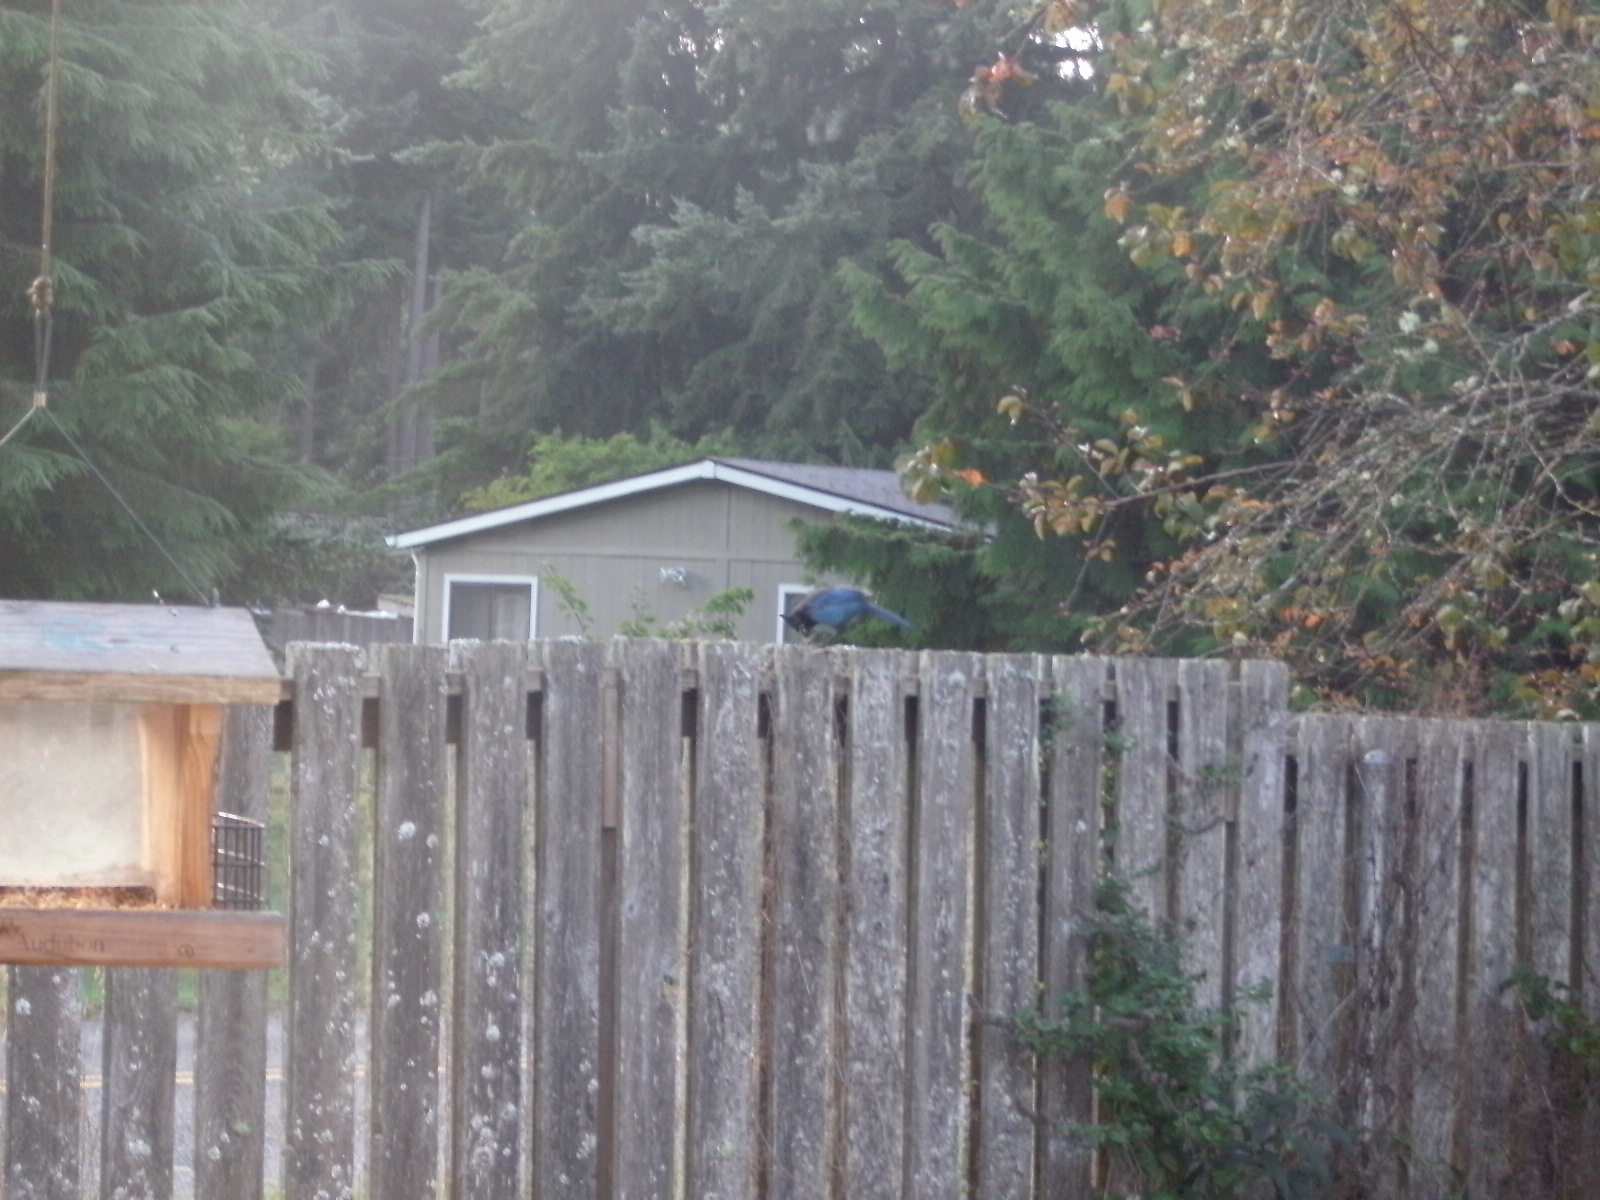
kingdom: Animalia
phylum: Chordata
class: Aves
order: Passeriformes
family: Corvidae
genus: Cyanocitta
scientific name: Cyanocitta stelleri
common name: Steller's jay
